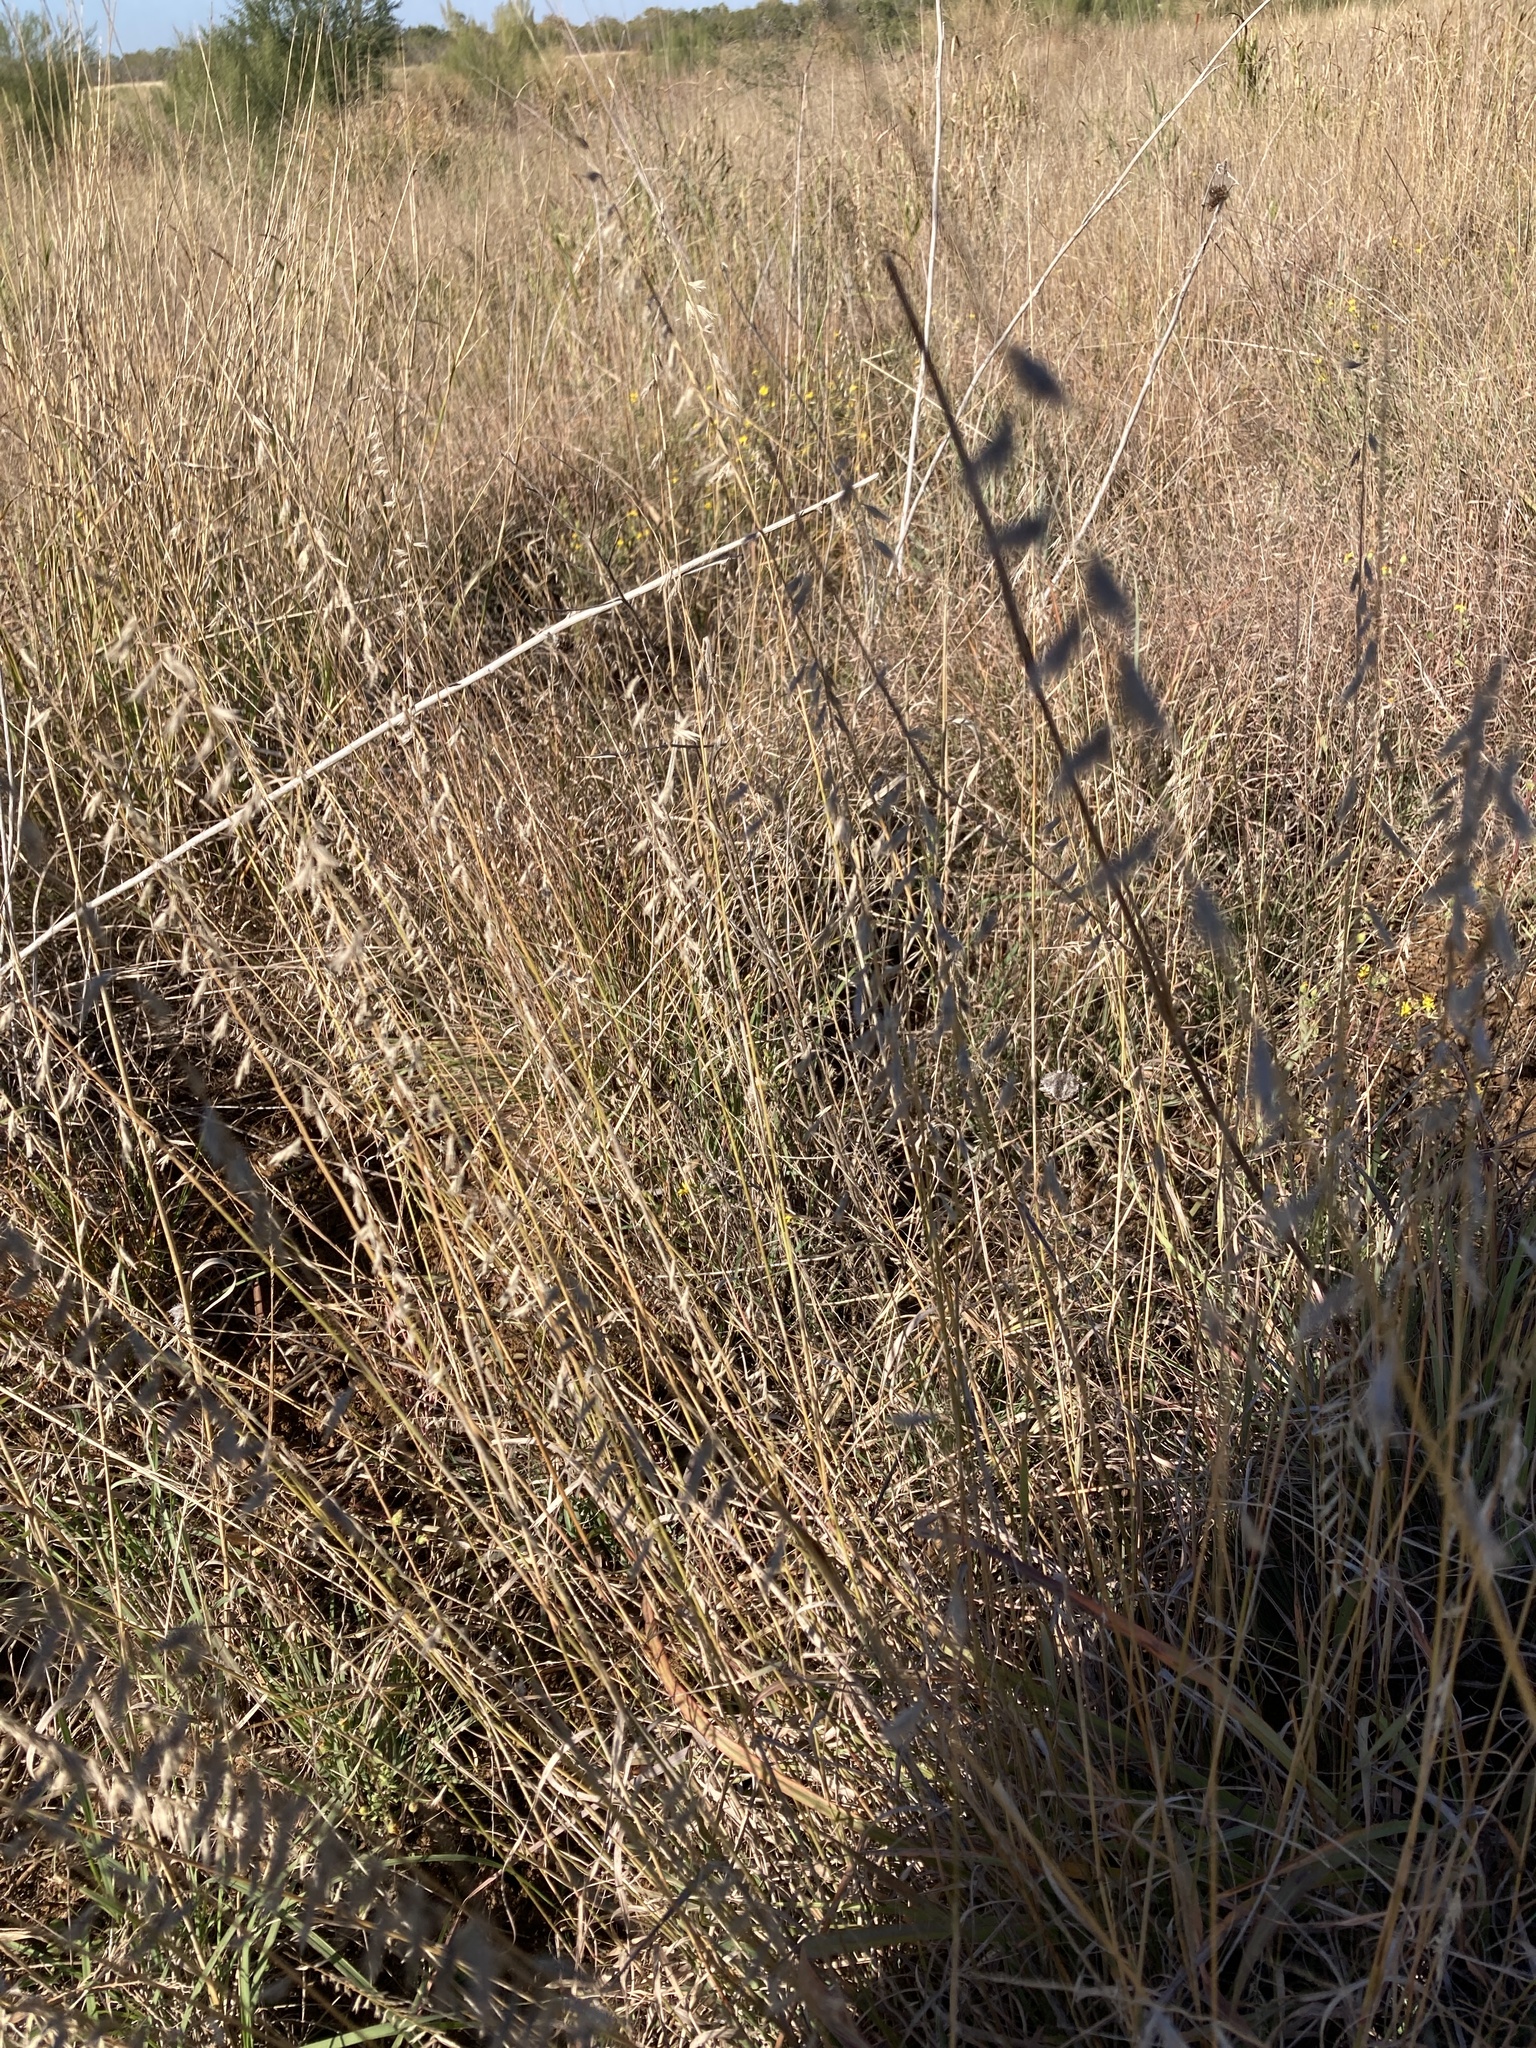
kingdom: Plantae
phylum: Tracheophyta
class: Liliopsida
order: Poales
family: Poaceae
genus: Bouteloua
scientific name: Bouteloua curtipendula
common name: Side-oats grama
